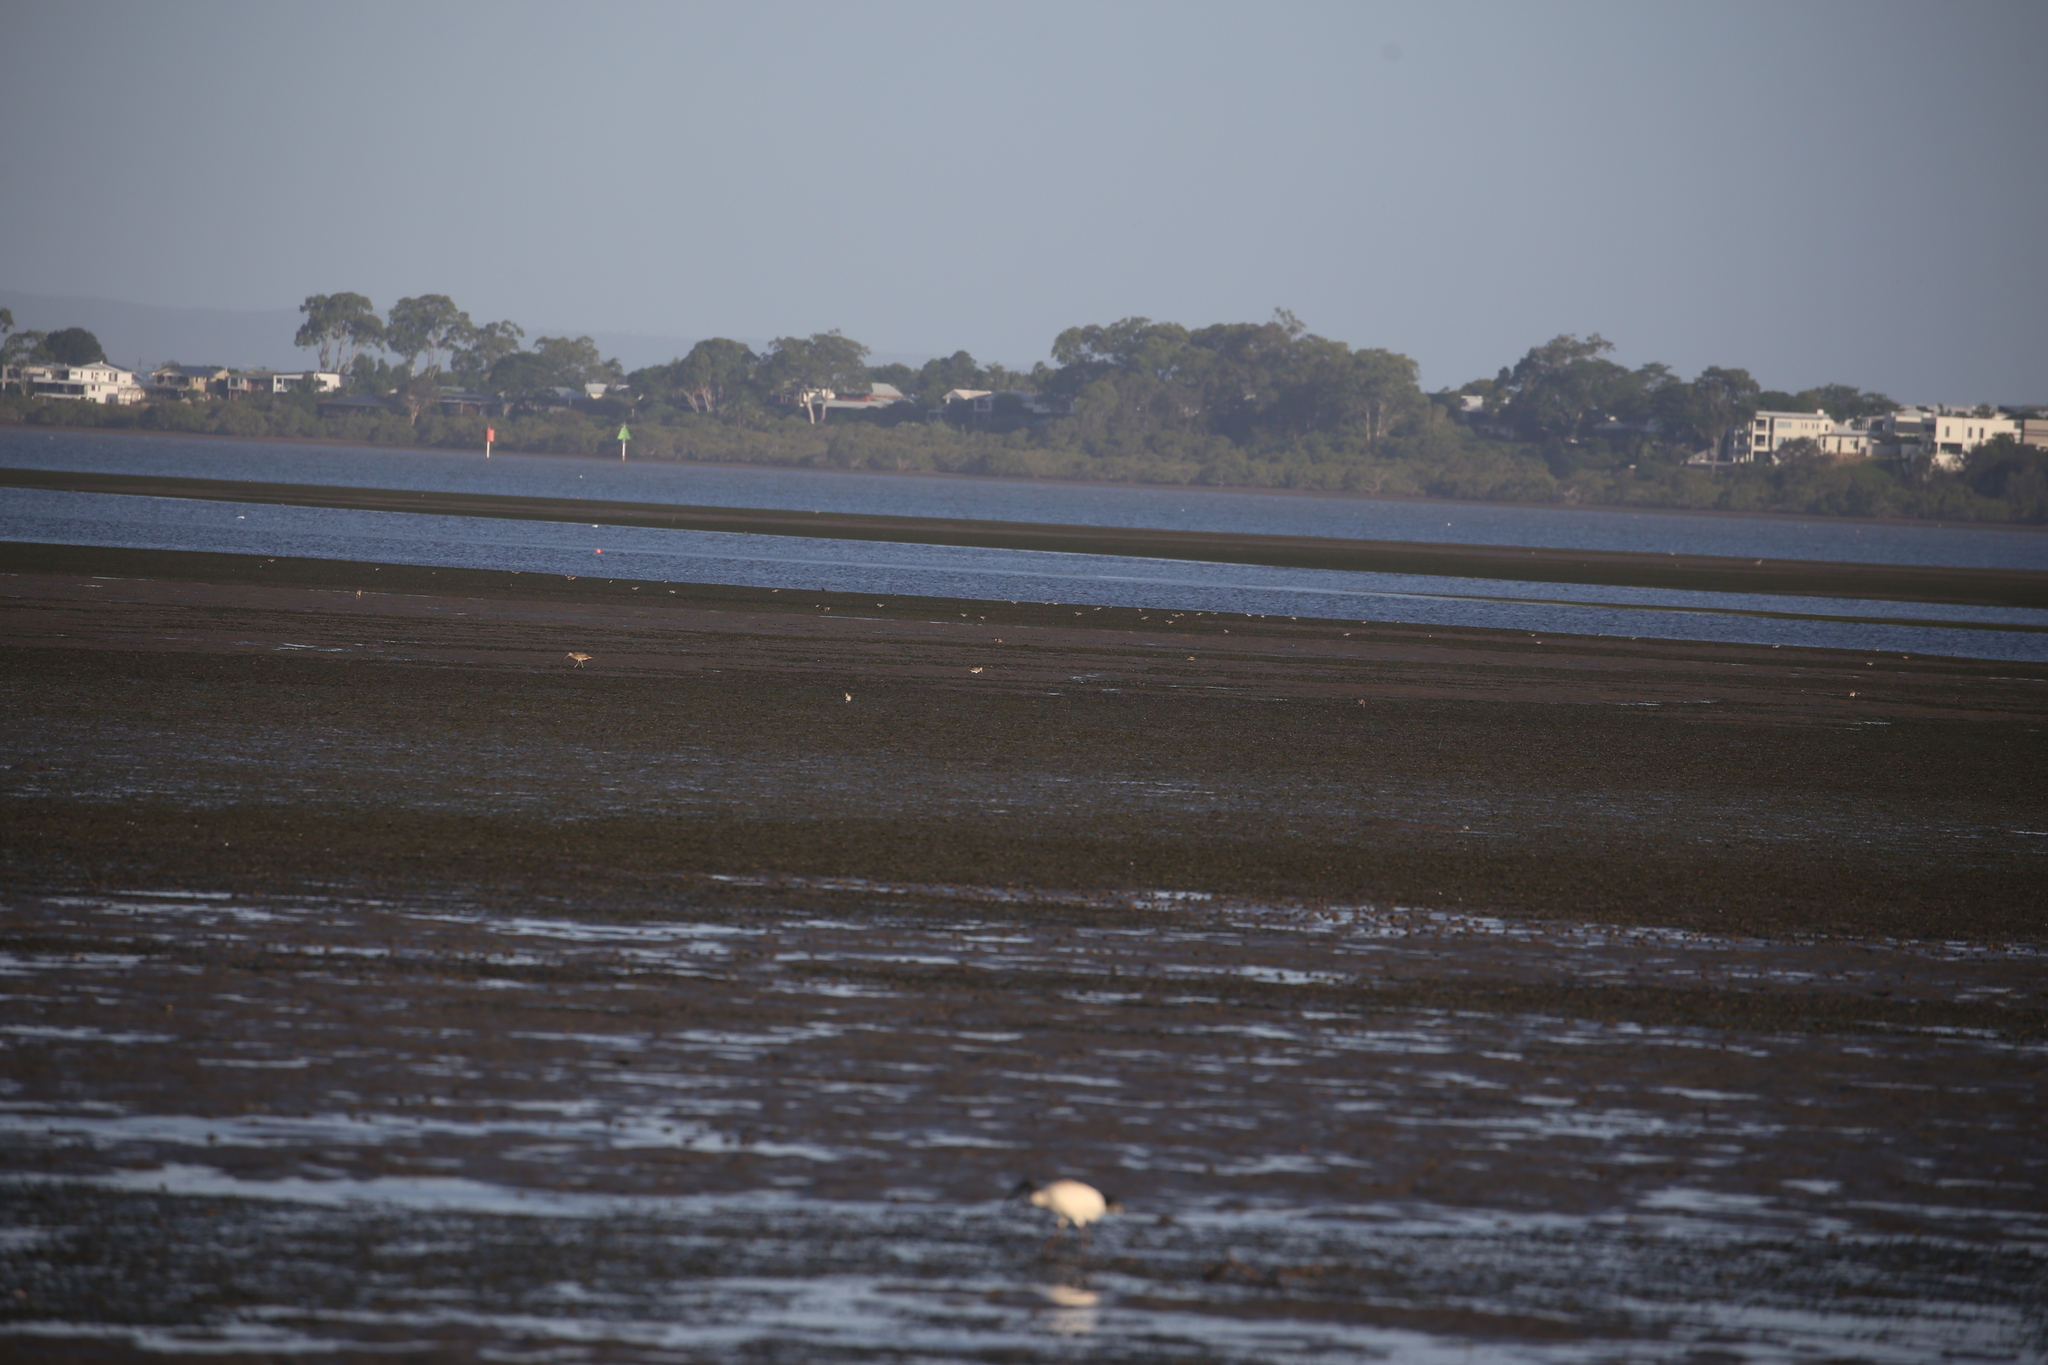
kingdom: Animalia
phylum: Chordata
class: Aves
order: Charadriiformes
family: Scolopacidae
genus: Numenius
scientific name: Numenius madagascariensis
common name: Far eastern curlew
